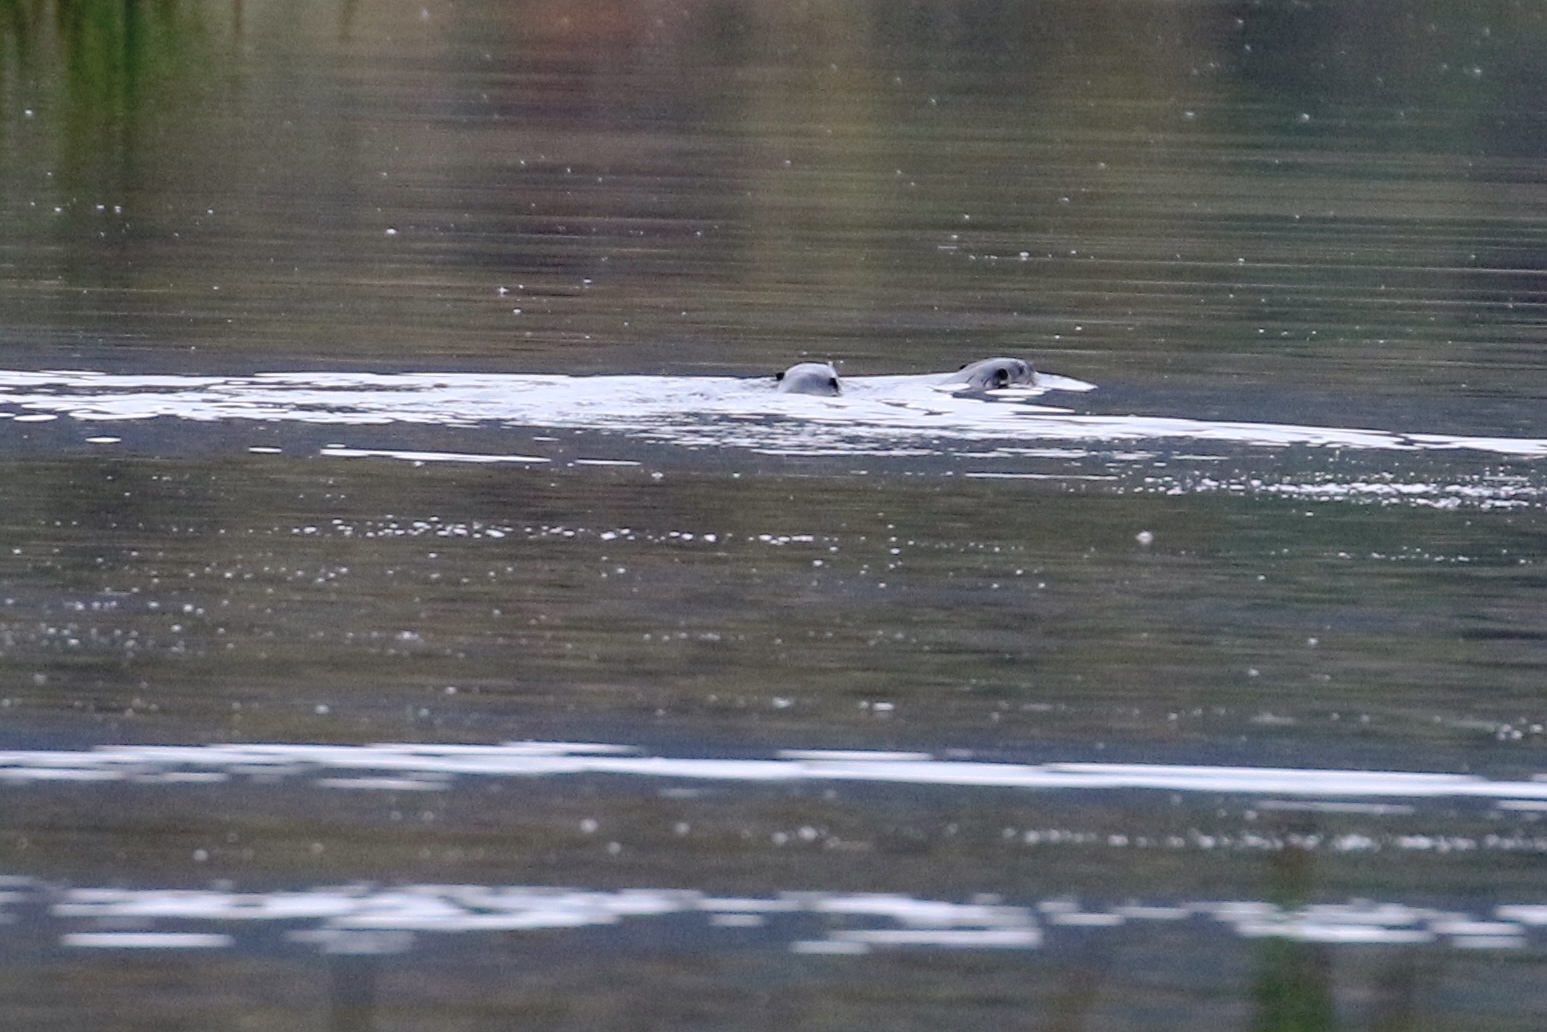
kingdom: Animalia
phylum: Chordata
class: Mammalia
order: Carnivora
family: Mustelidae
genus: Lontra
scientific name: Lontra canadensis
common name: North american river otter
